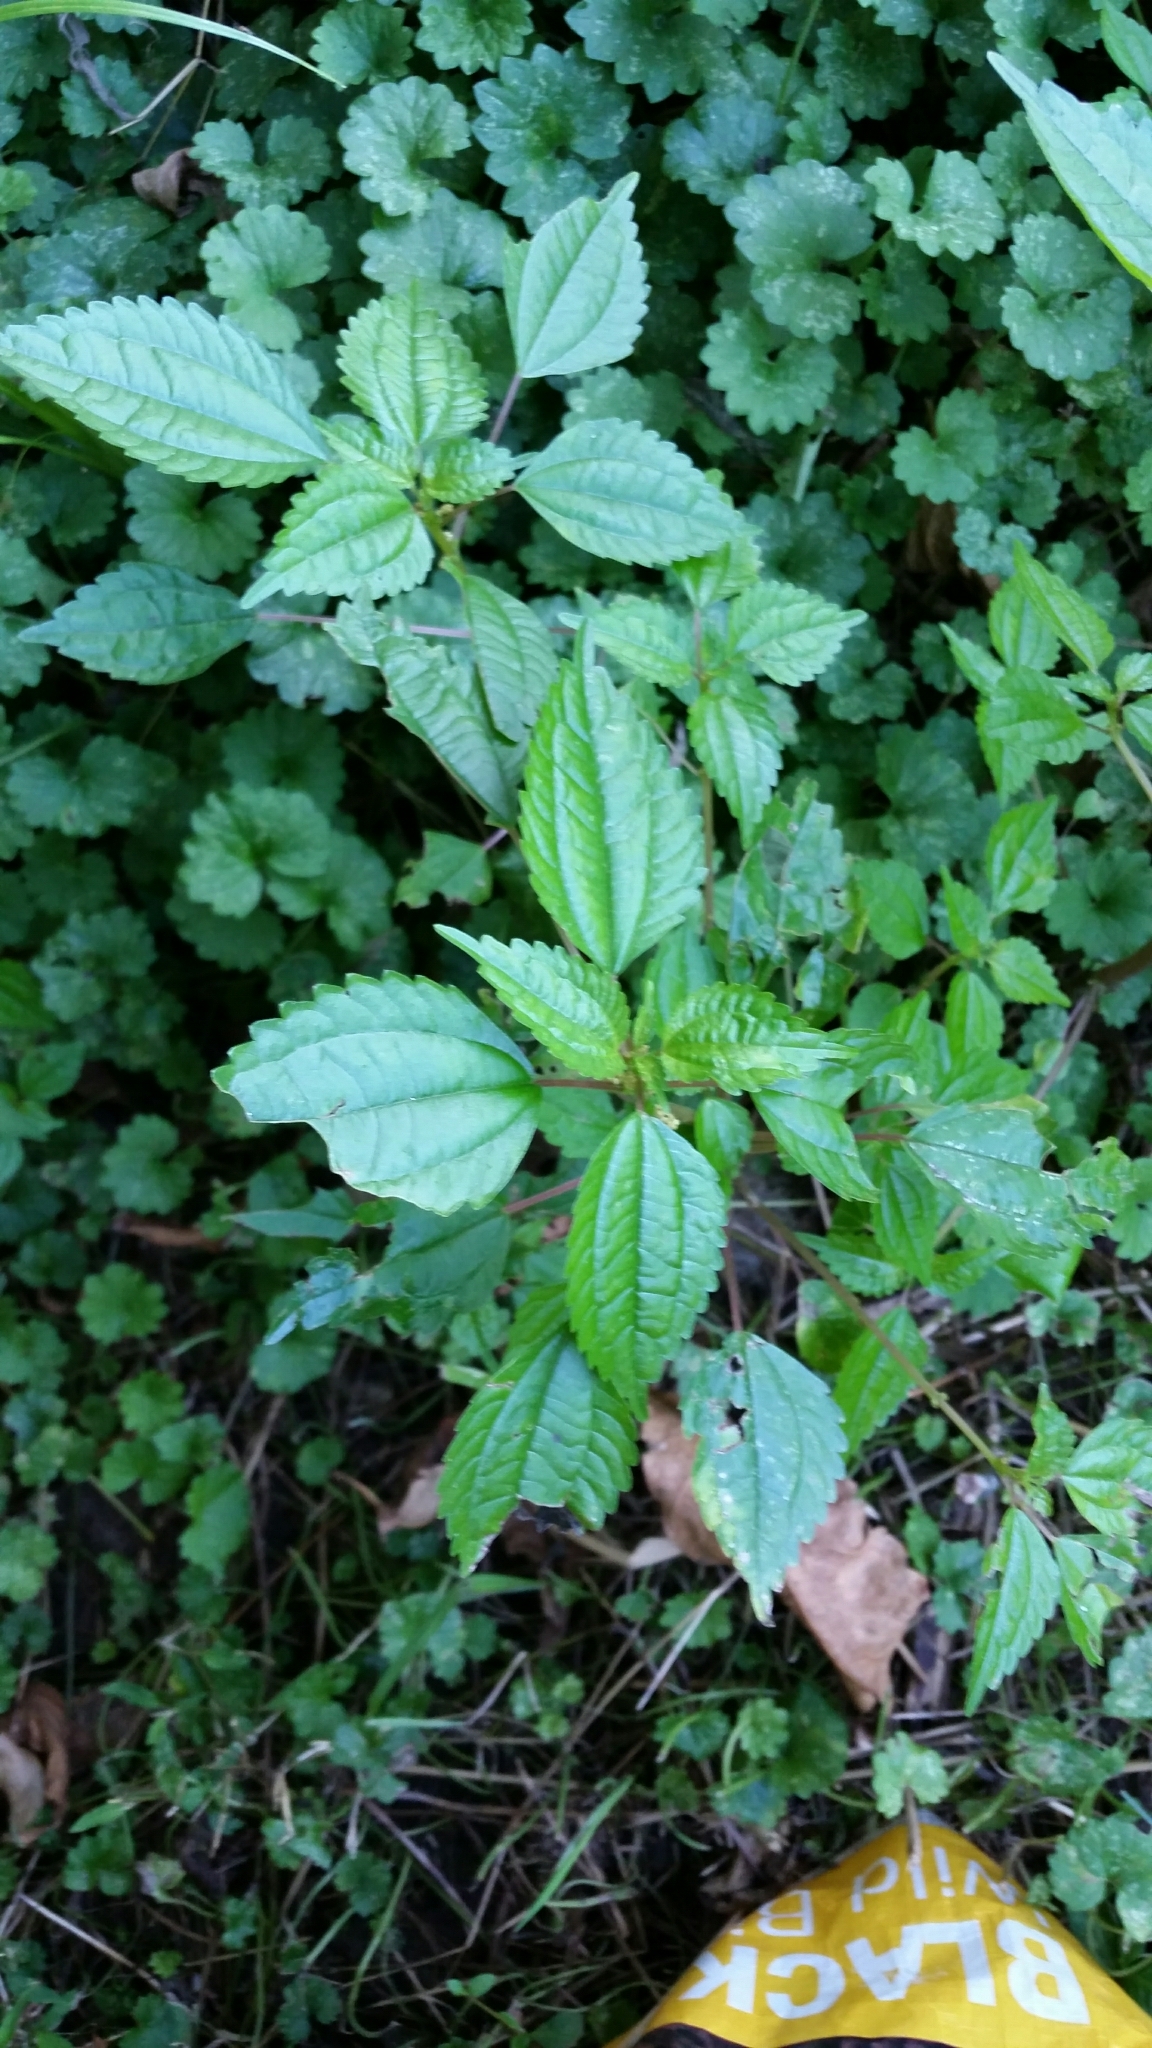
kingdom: Plantae
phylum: Tracheophyta
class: Magnoliopsida
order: Rosales
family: Urticaceae
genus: Pilea
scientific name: Pilea pumila
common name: Clearweed
